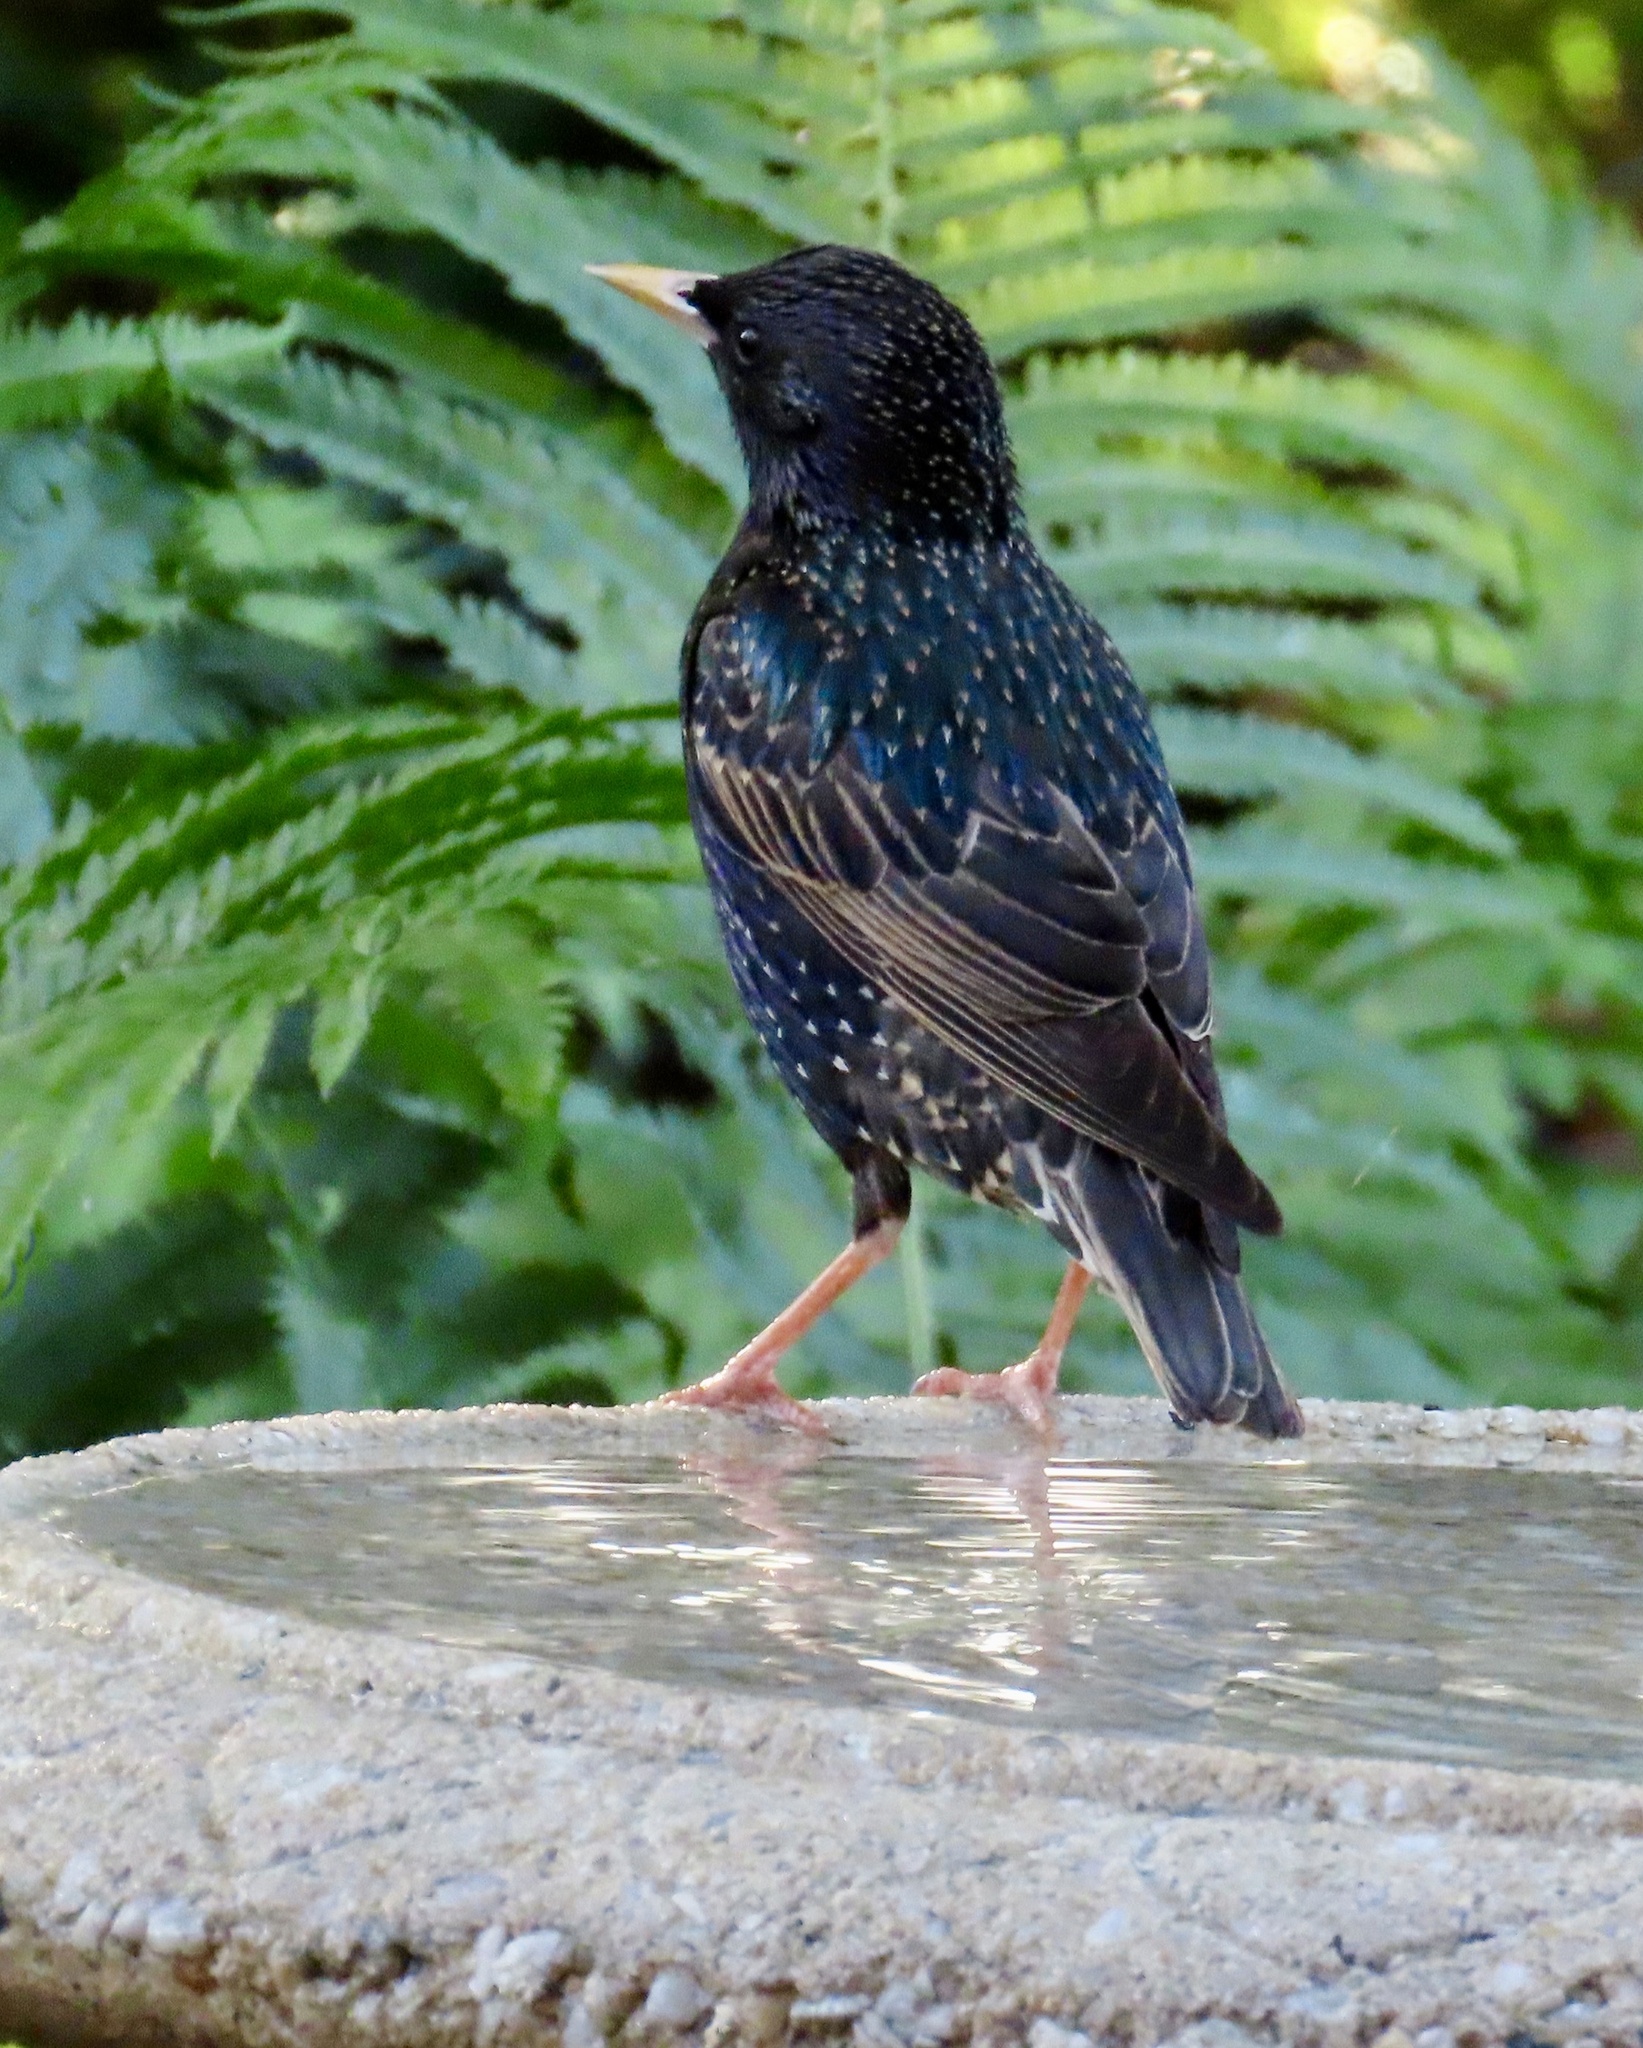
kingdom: Animalia
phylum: Chordata
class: Aves
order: Passeriformes
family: Sturnidae
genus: Sturnus
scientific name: Sturnus vulgaris
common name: Common starling
